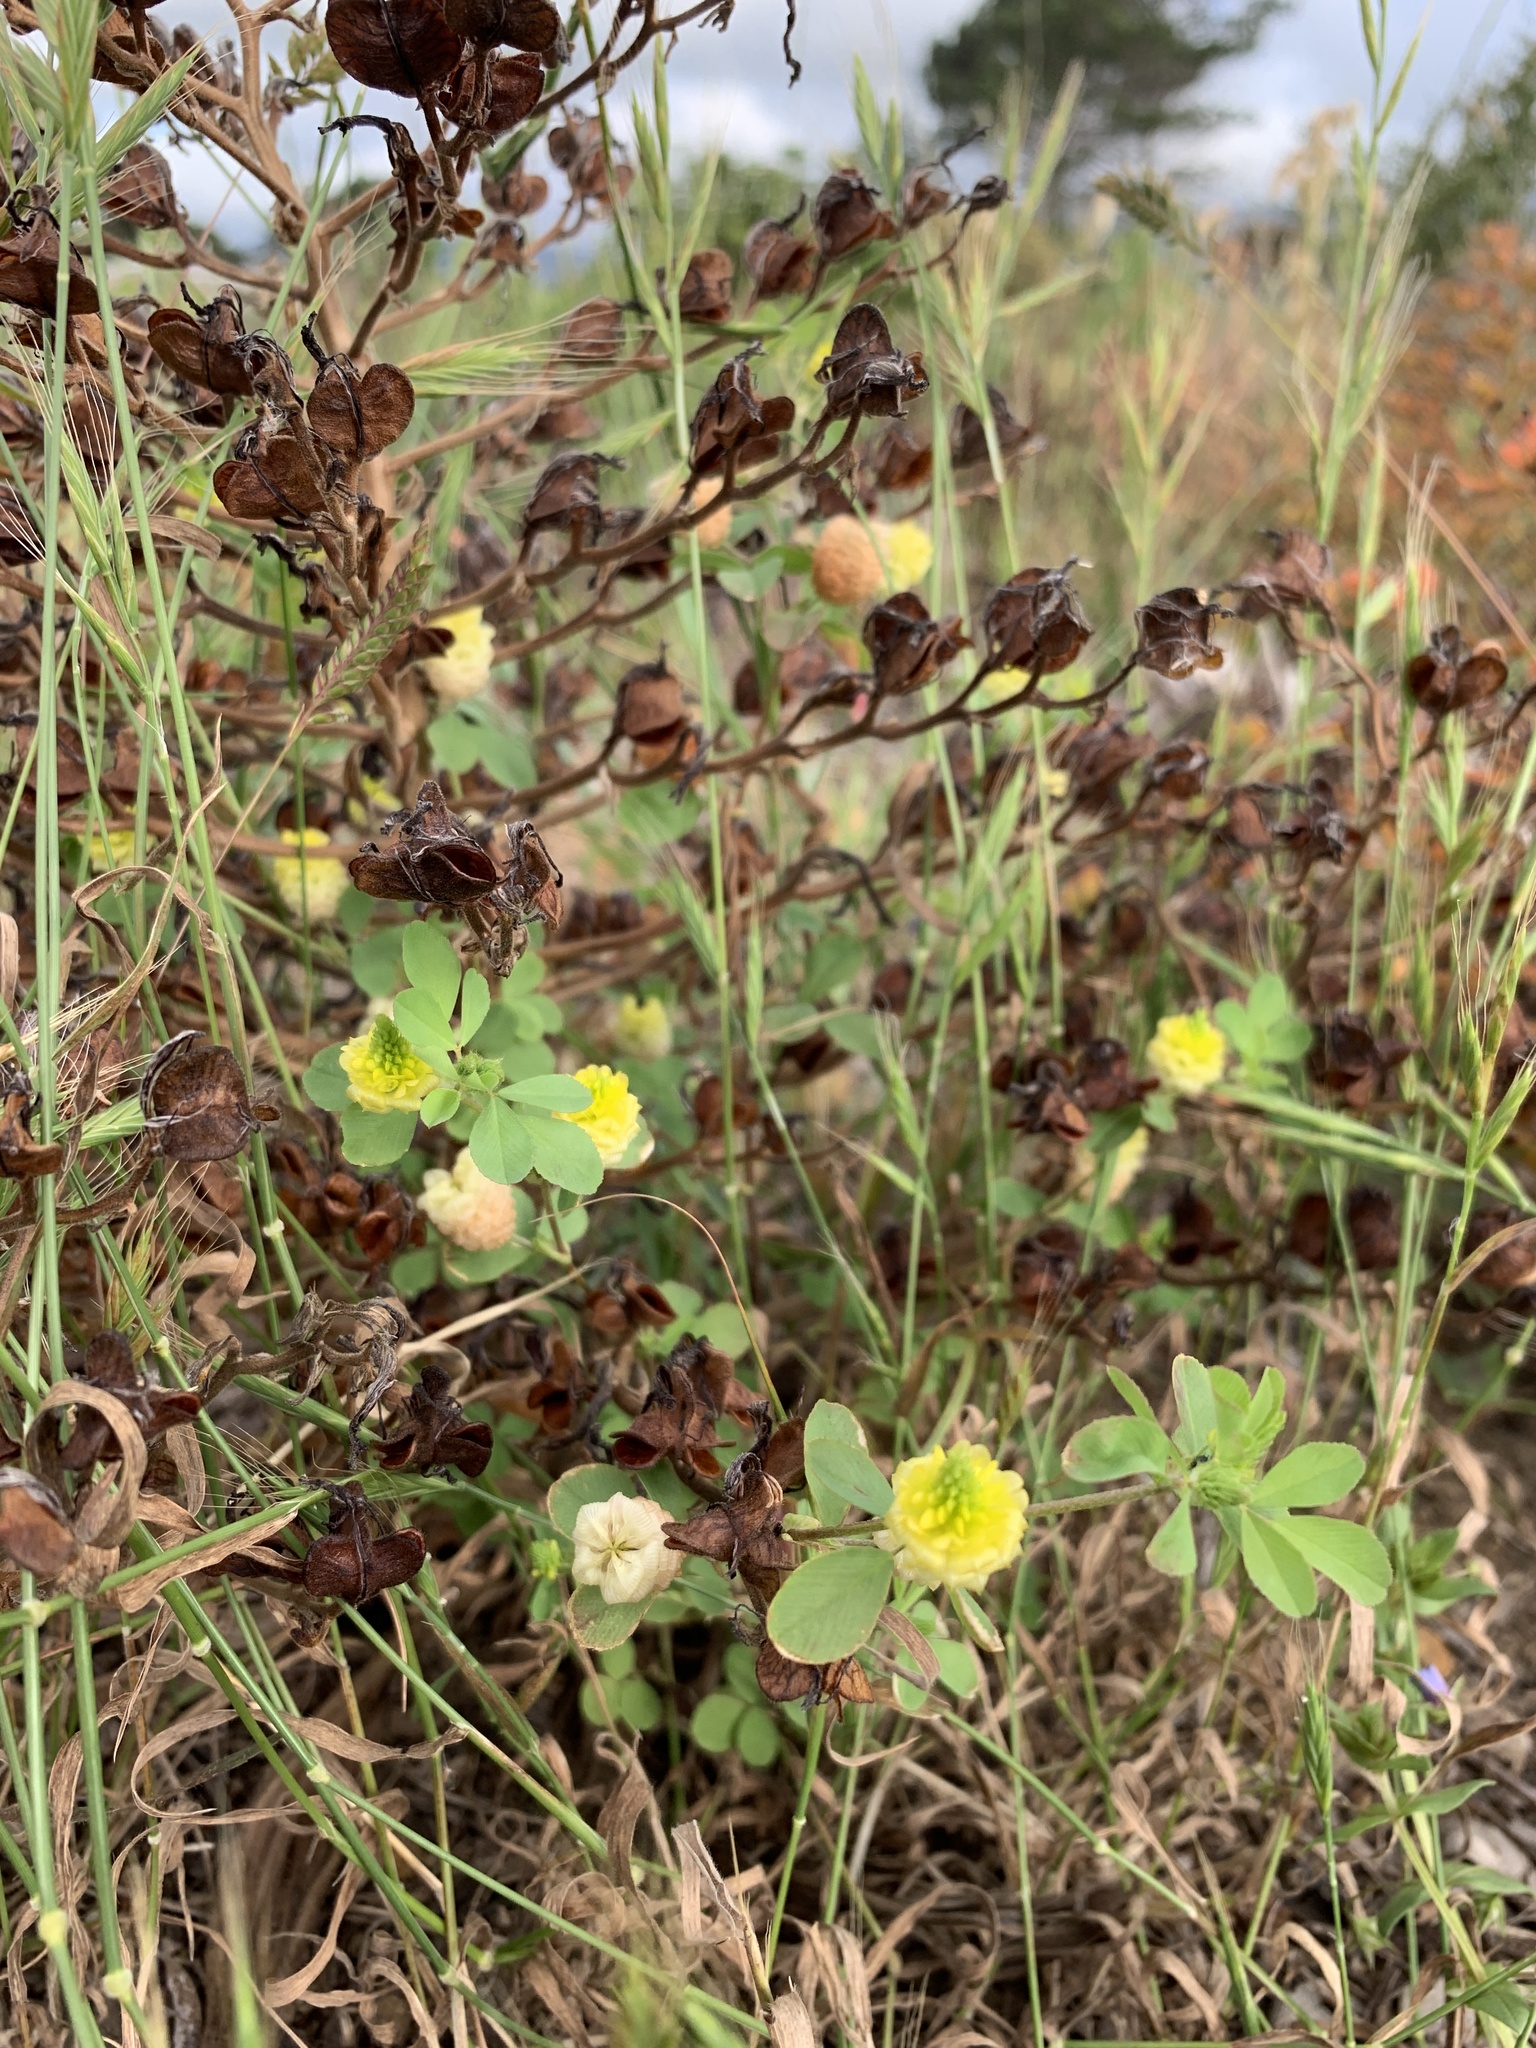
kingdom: Plantae
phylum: Tracheophyta
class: Magnoliopsida
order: Fabales
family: Fabaceae
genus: Trifolium
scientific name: Trifolium campestre
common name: Field clover
